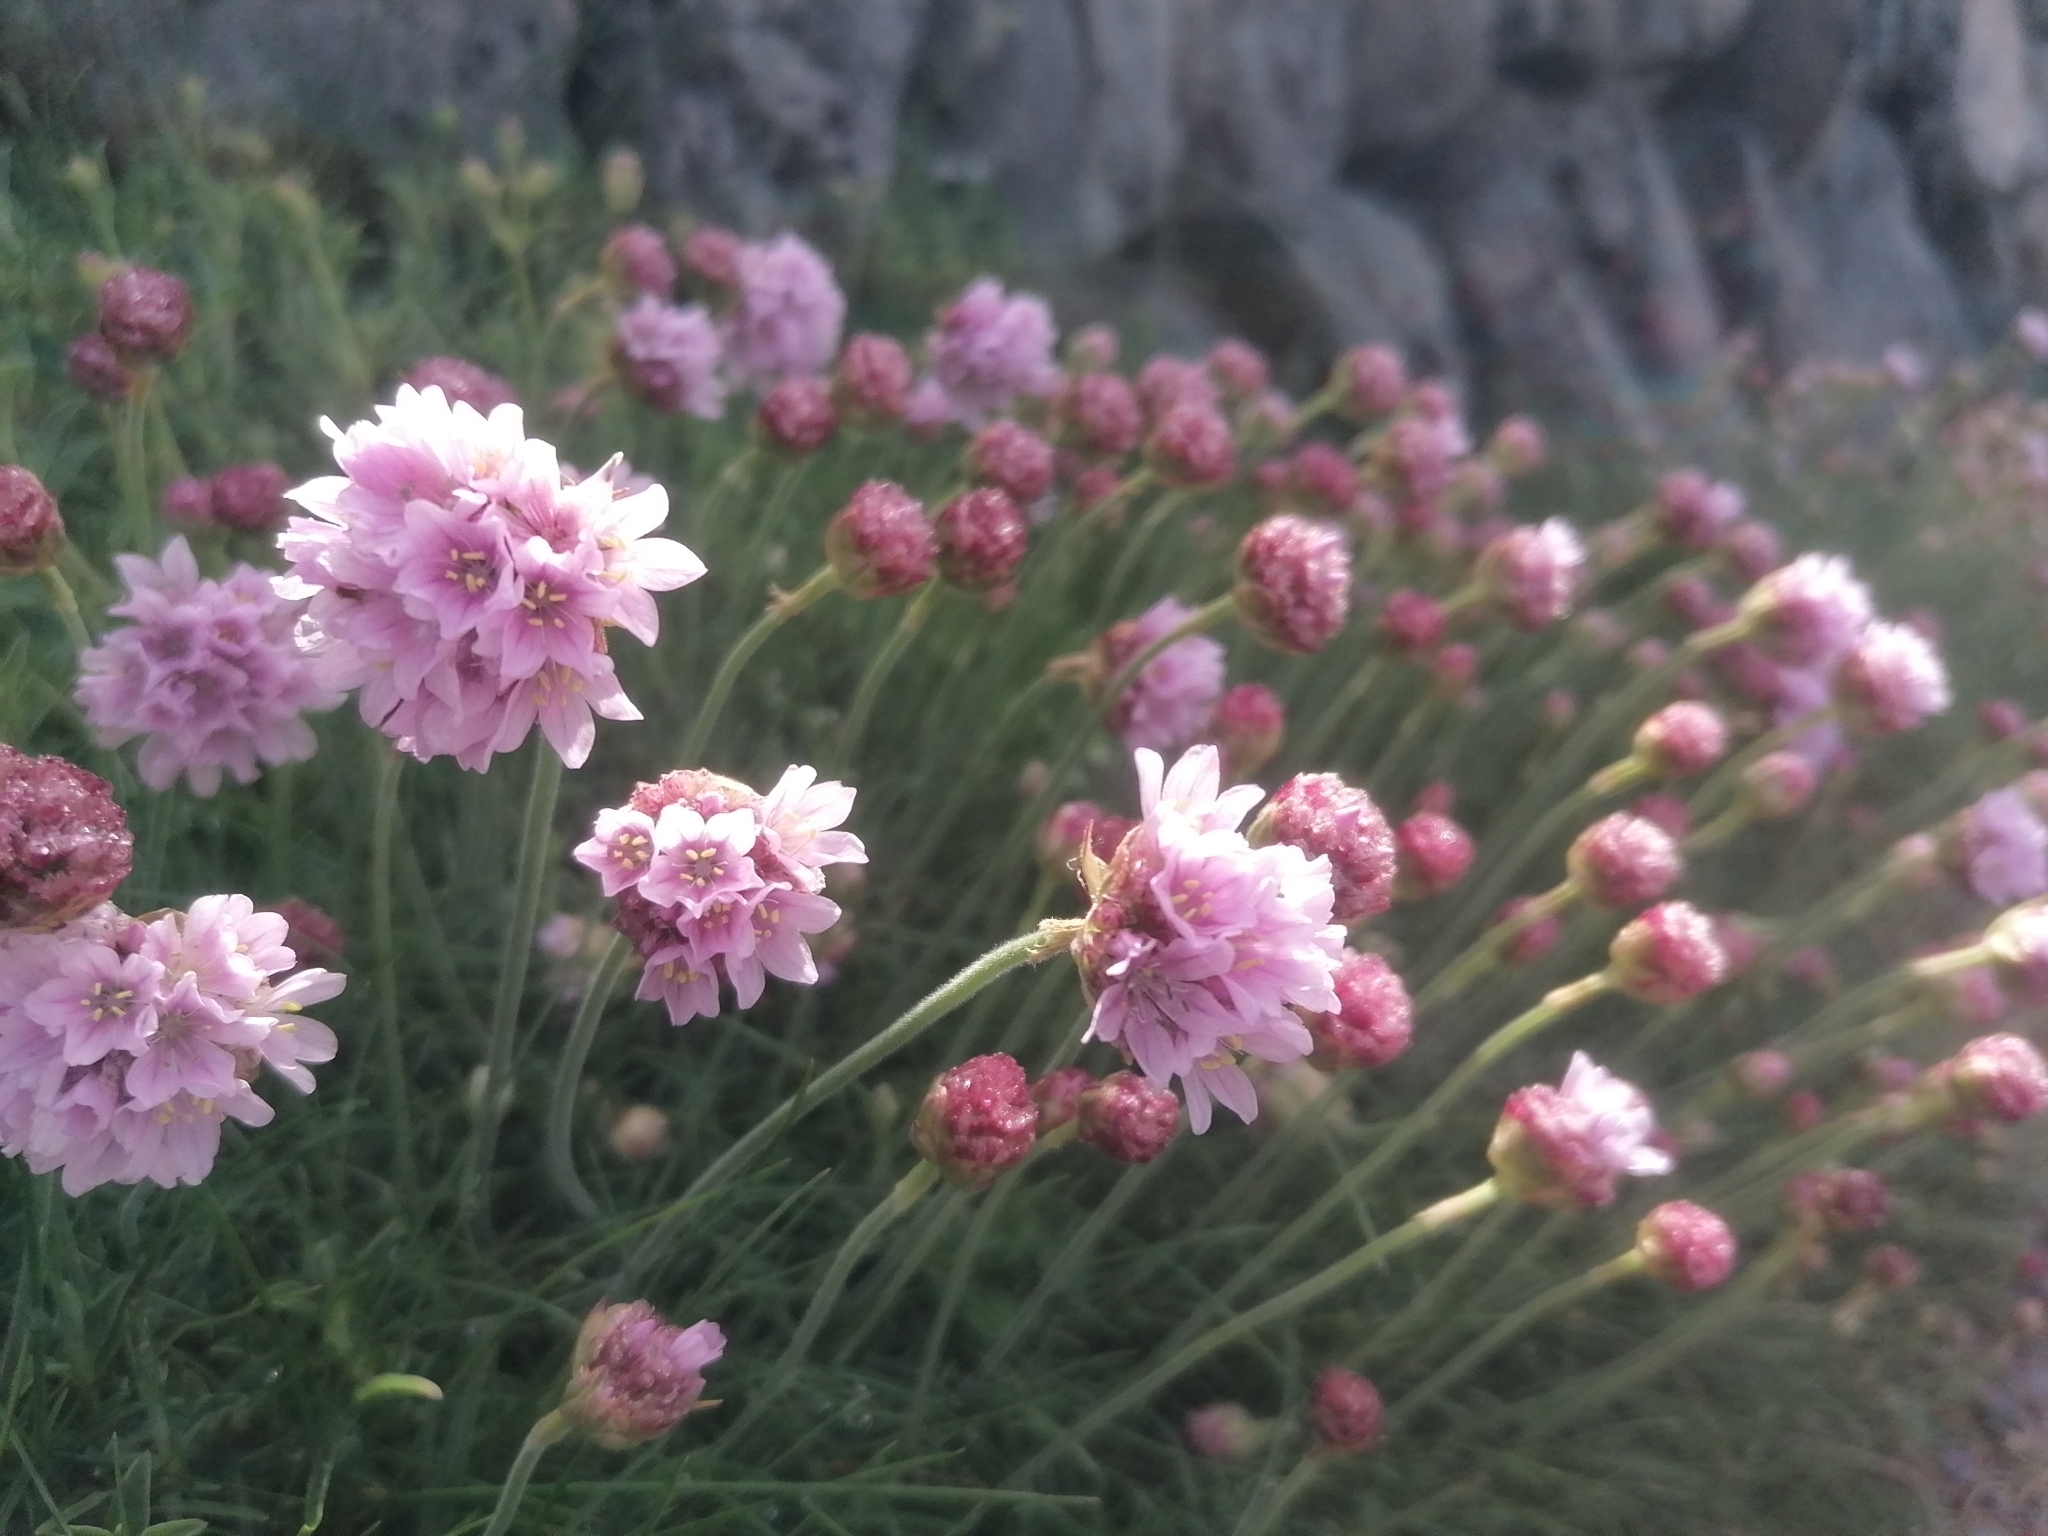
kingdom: Plantae
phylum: Tracheophyta
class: Magnoliopsida
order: Caryophyllales
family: Plumbaginaceae
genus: Armeria
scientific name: Armeria maritima
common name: Thrift
